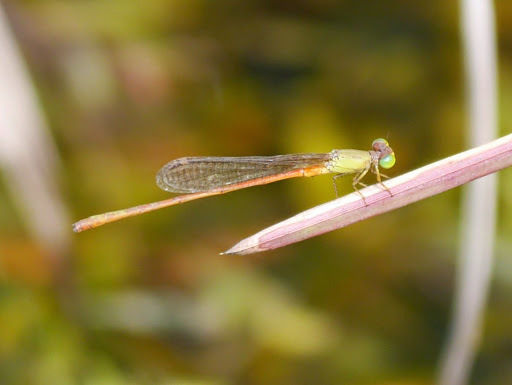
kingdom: Animalia
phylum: Arthropoda
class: Insecta
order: Odonata
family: Coenagrionidae
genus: Ceriagrion
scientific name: Ceriagrion corallinum
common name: Green-fronted waxtail
